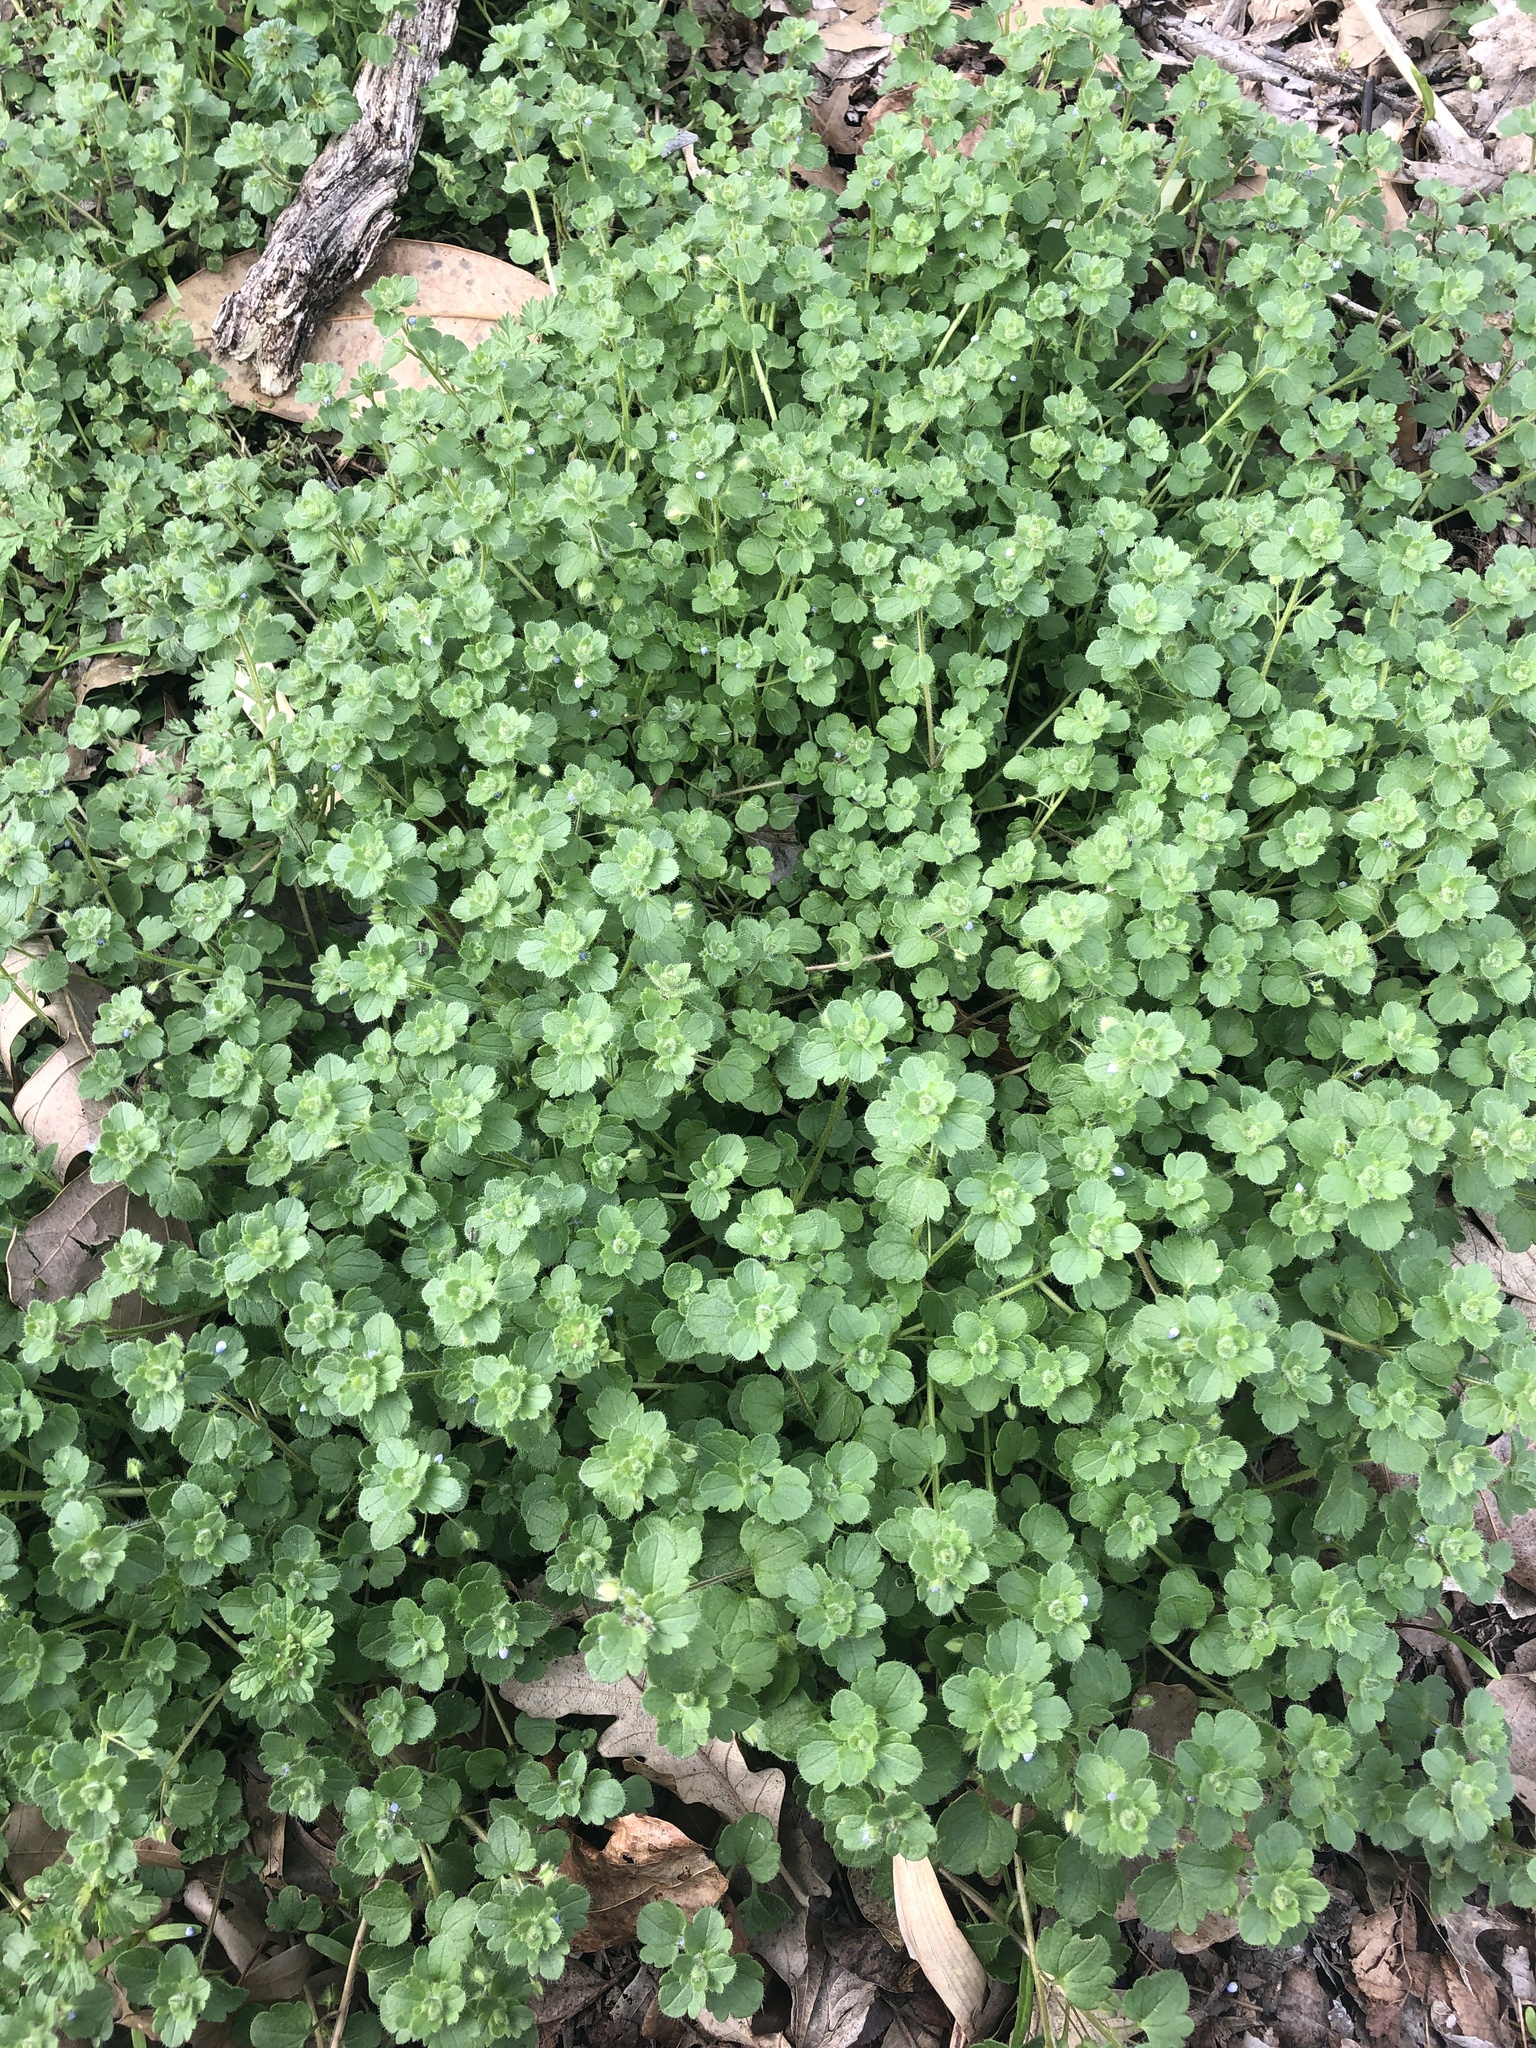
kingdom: Plantae
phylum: Tracheophyta
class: Magnoliopsida
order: Lamiales
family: Plantaginaceae
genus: Veronica
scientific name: Veronica hederifolia
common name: Ivy-leaved speedwell
